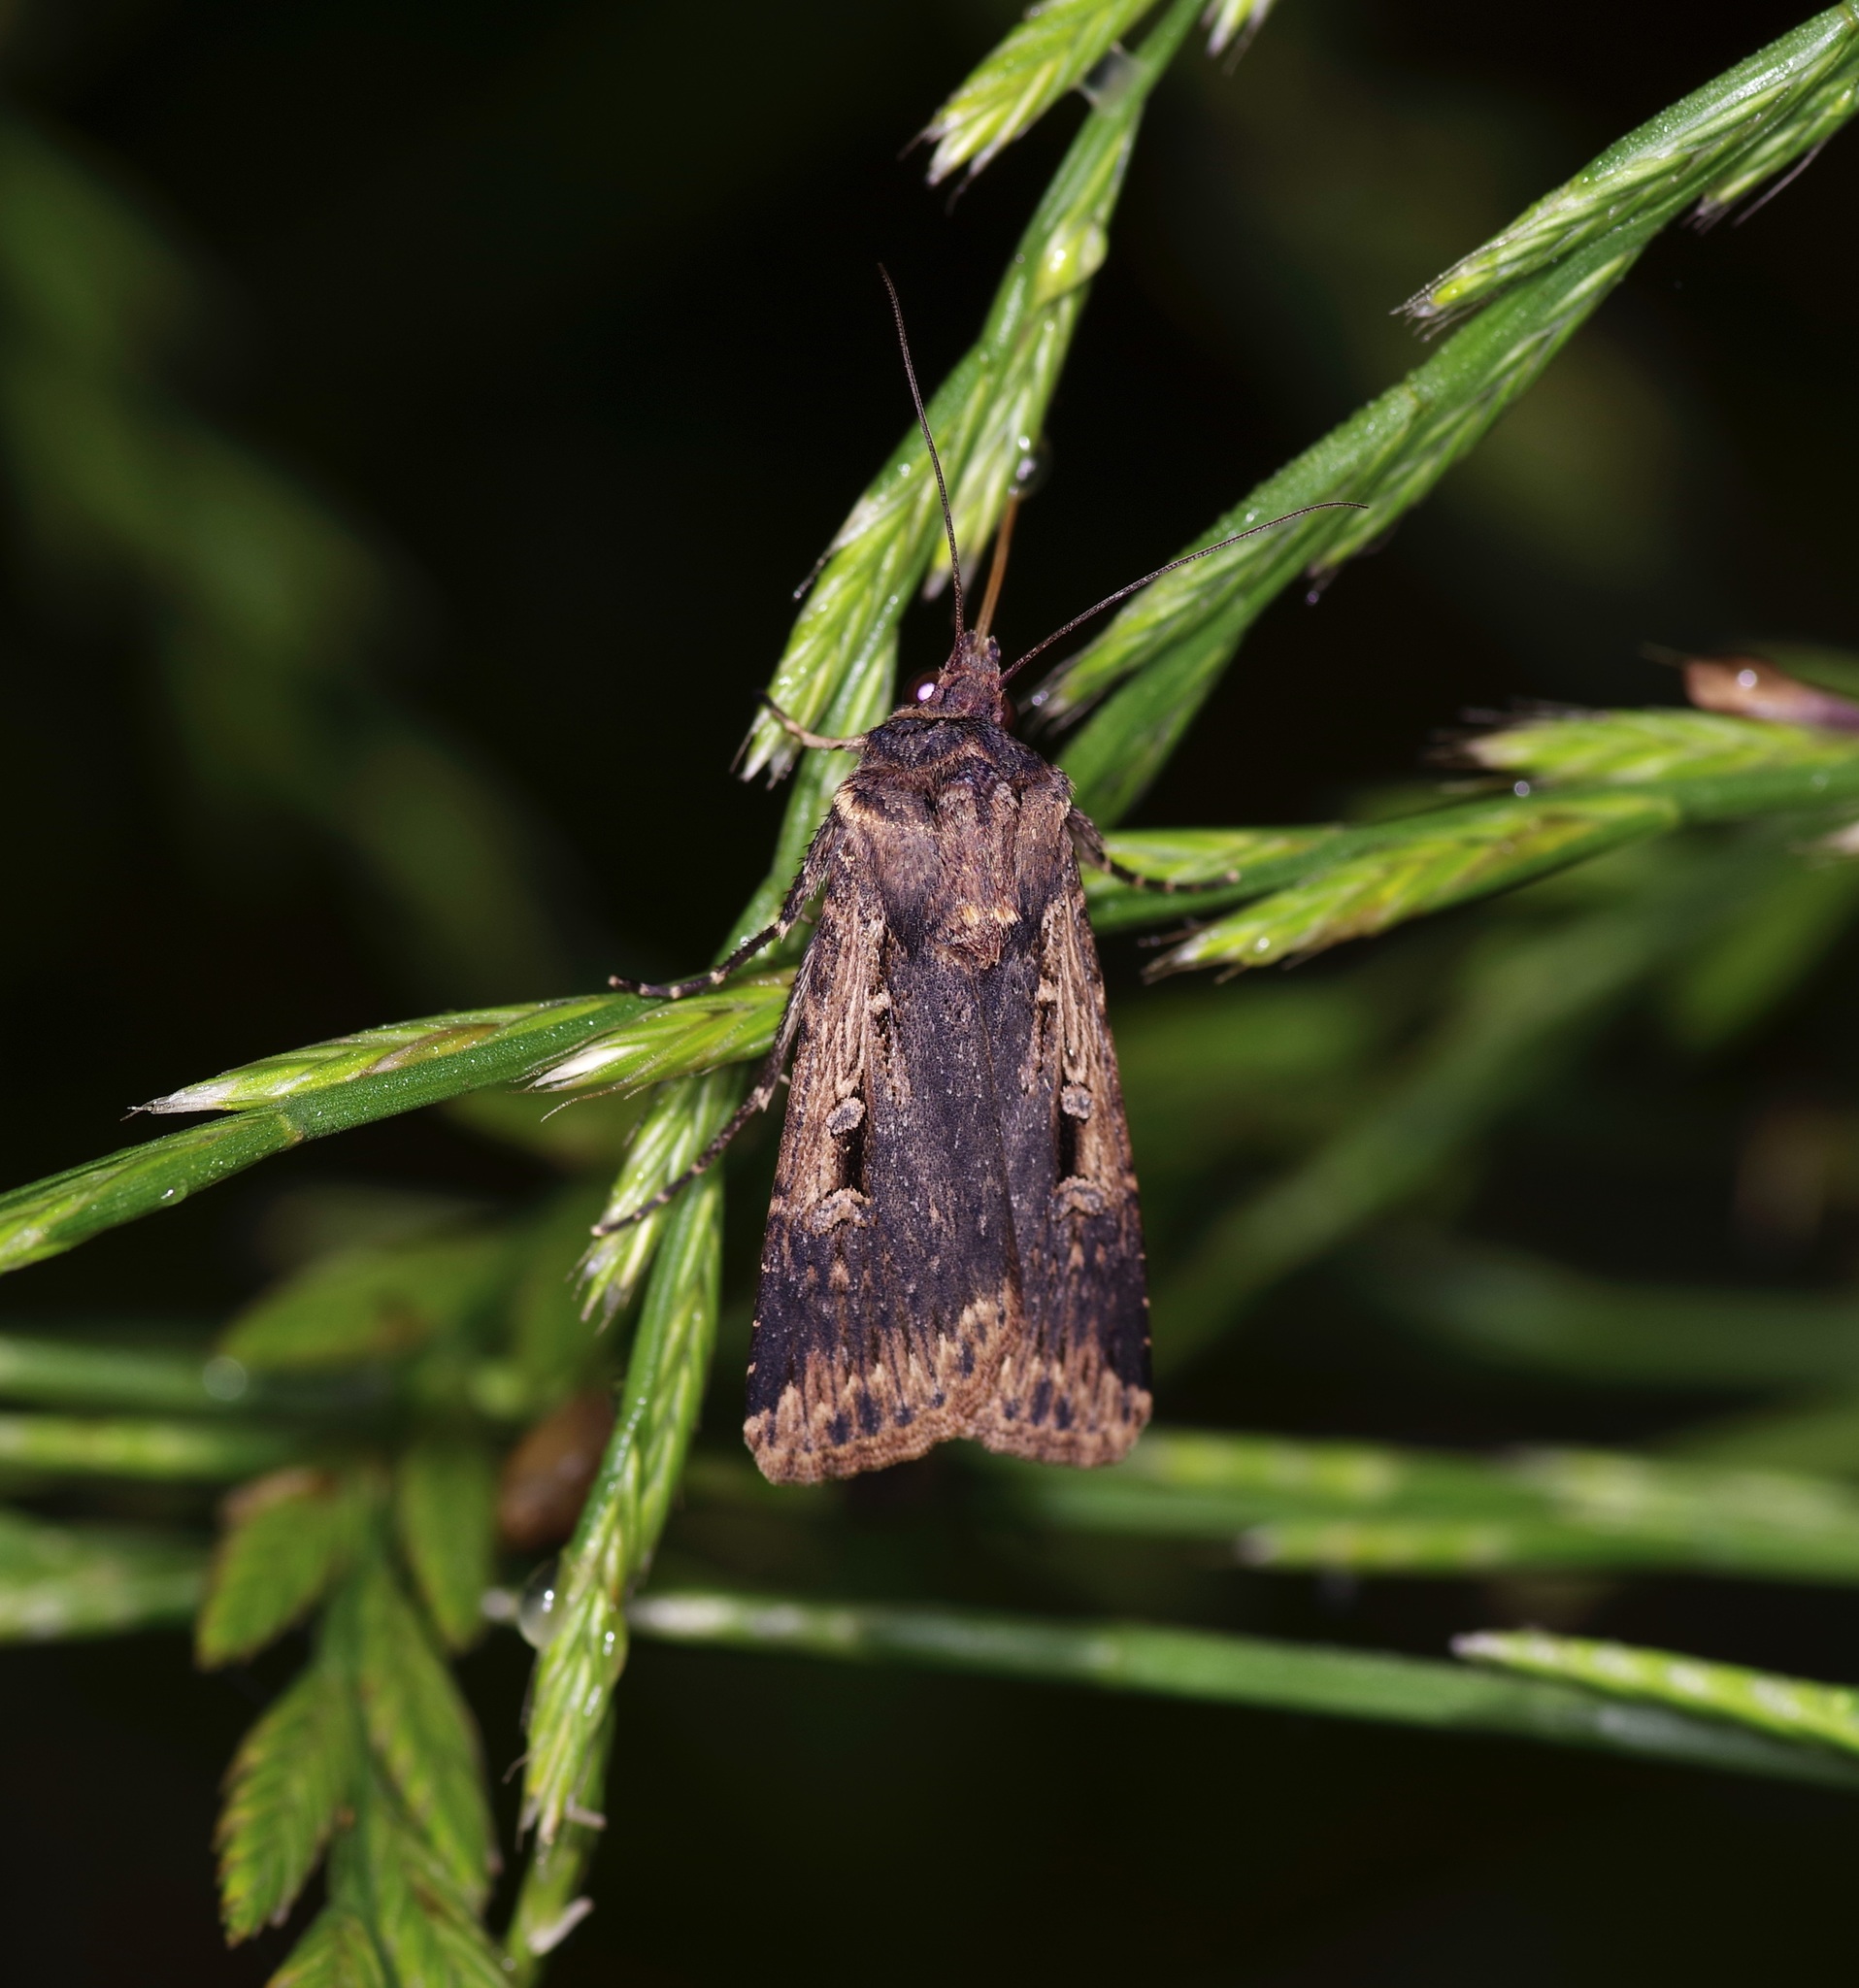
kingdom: Animalia
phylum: Arthropoda
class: Insecta
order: Lepidoptera
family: Noctuidae
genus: Feltia
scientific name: Feltia subterranea
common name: Granulate cutworm
